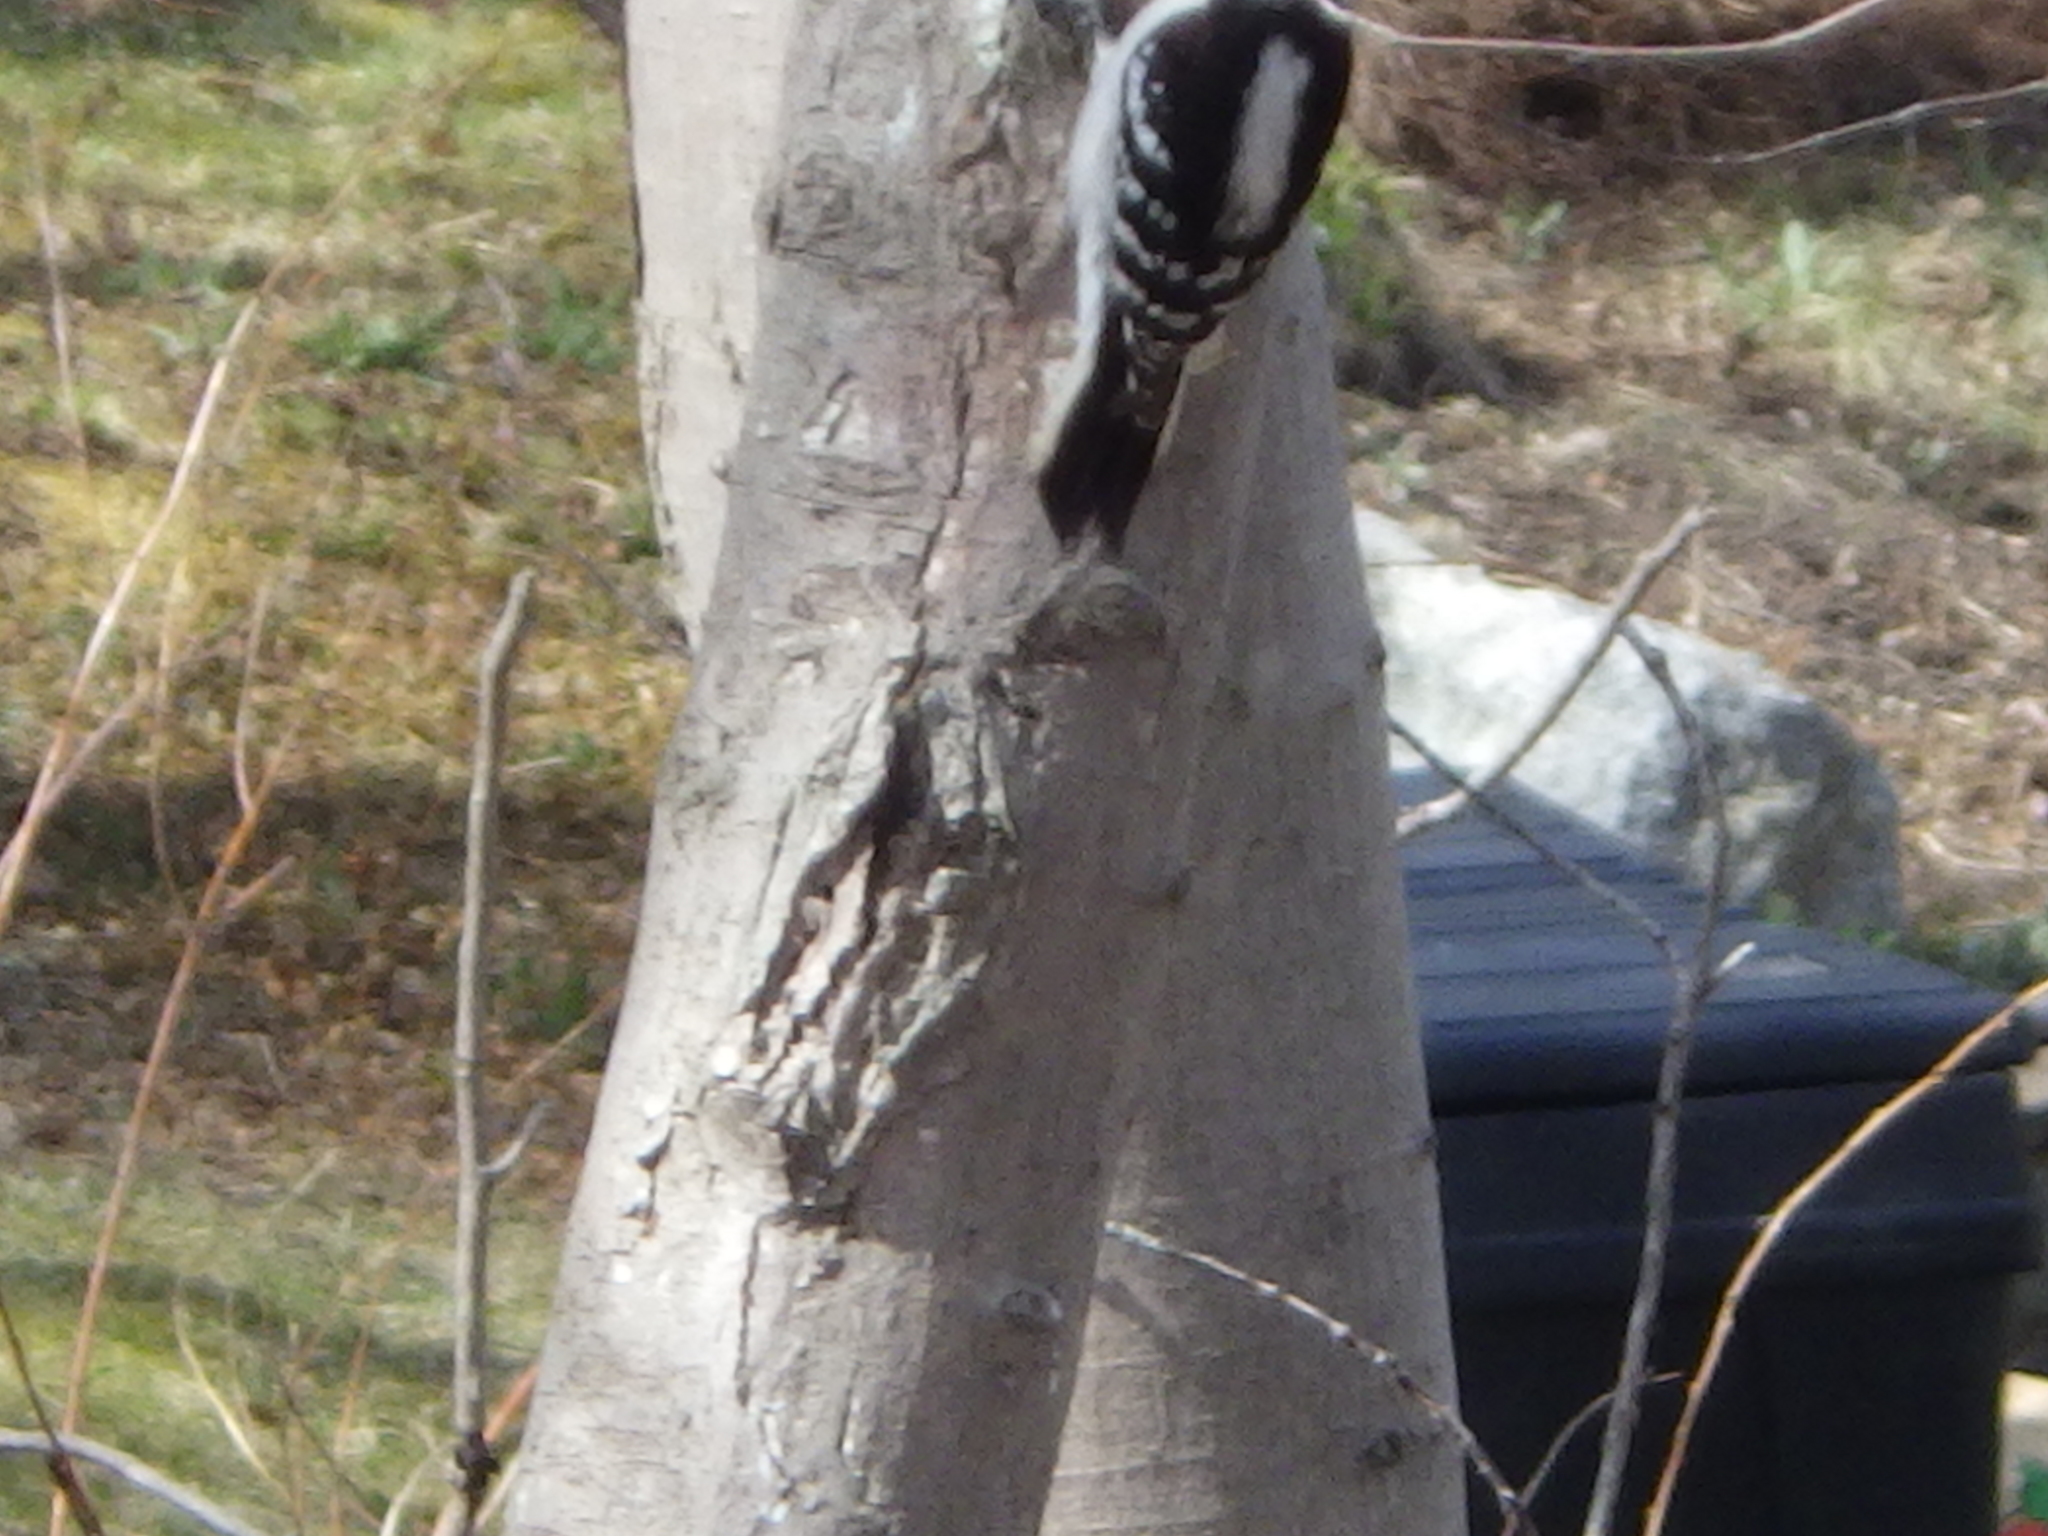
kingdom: Animalia
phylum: Chordata
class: Aves
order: Piciformes
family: Picidae
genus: Dryobates
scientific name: Dryobates pubescens
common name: Downy woodpecker
